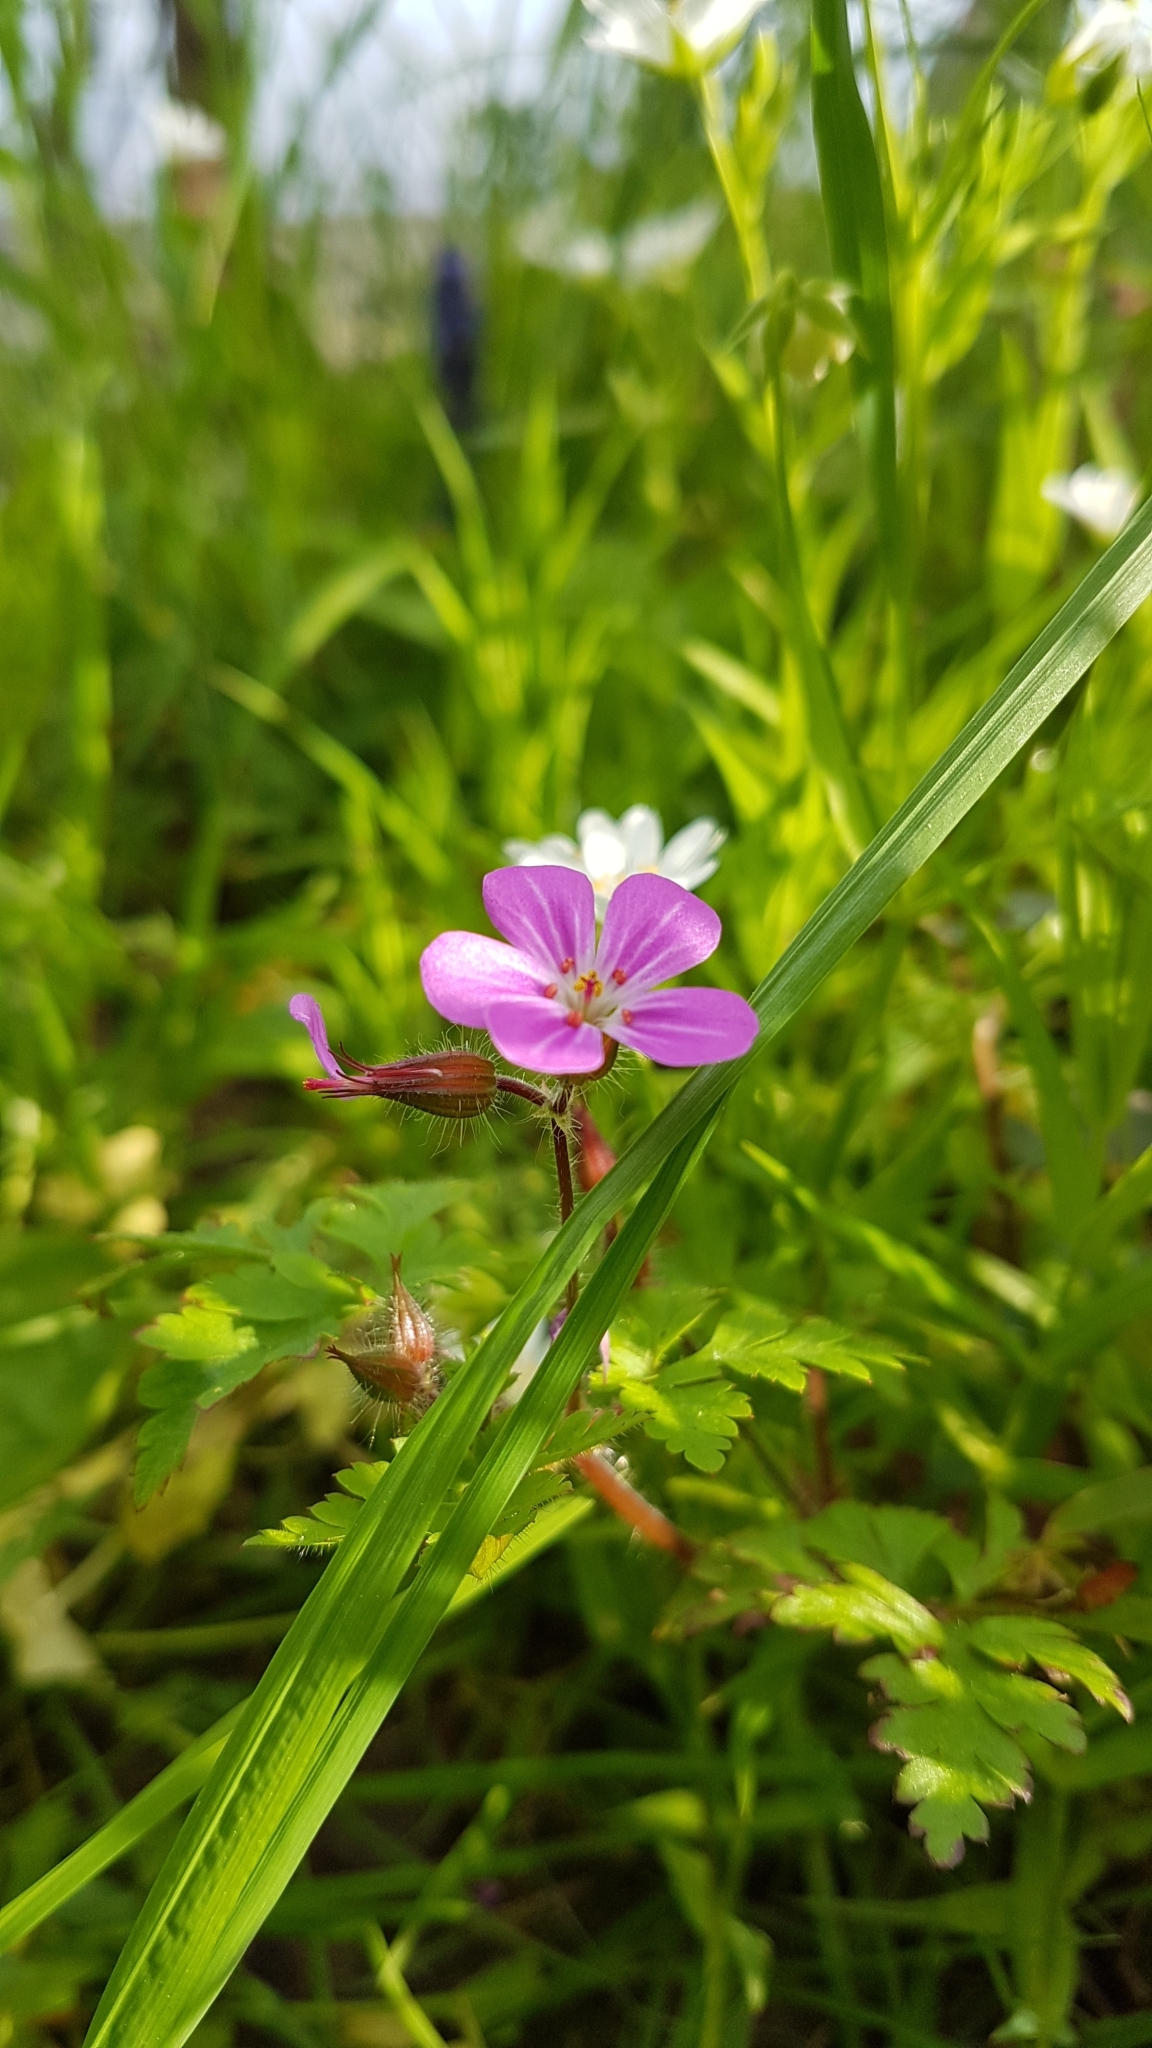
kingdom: Plantae
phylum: Tracheophyta
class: Magnoliopsida
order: Geraniales
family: Geraniaceae
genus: Geranium
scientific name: Geranium robertianum
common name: Herb-robert
